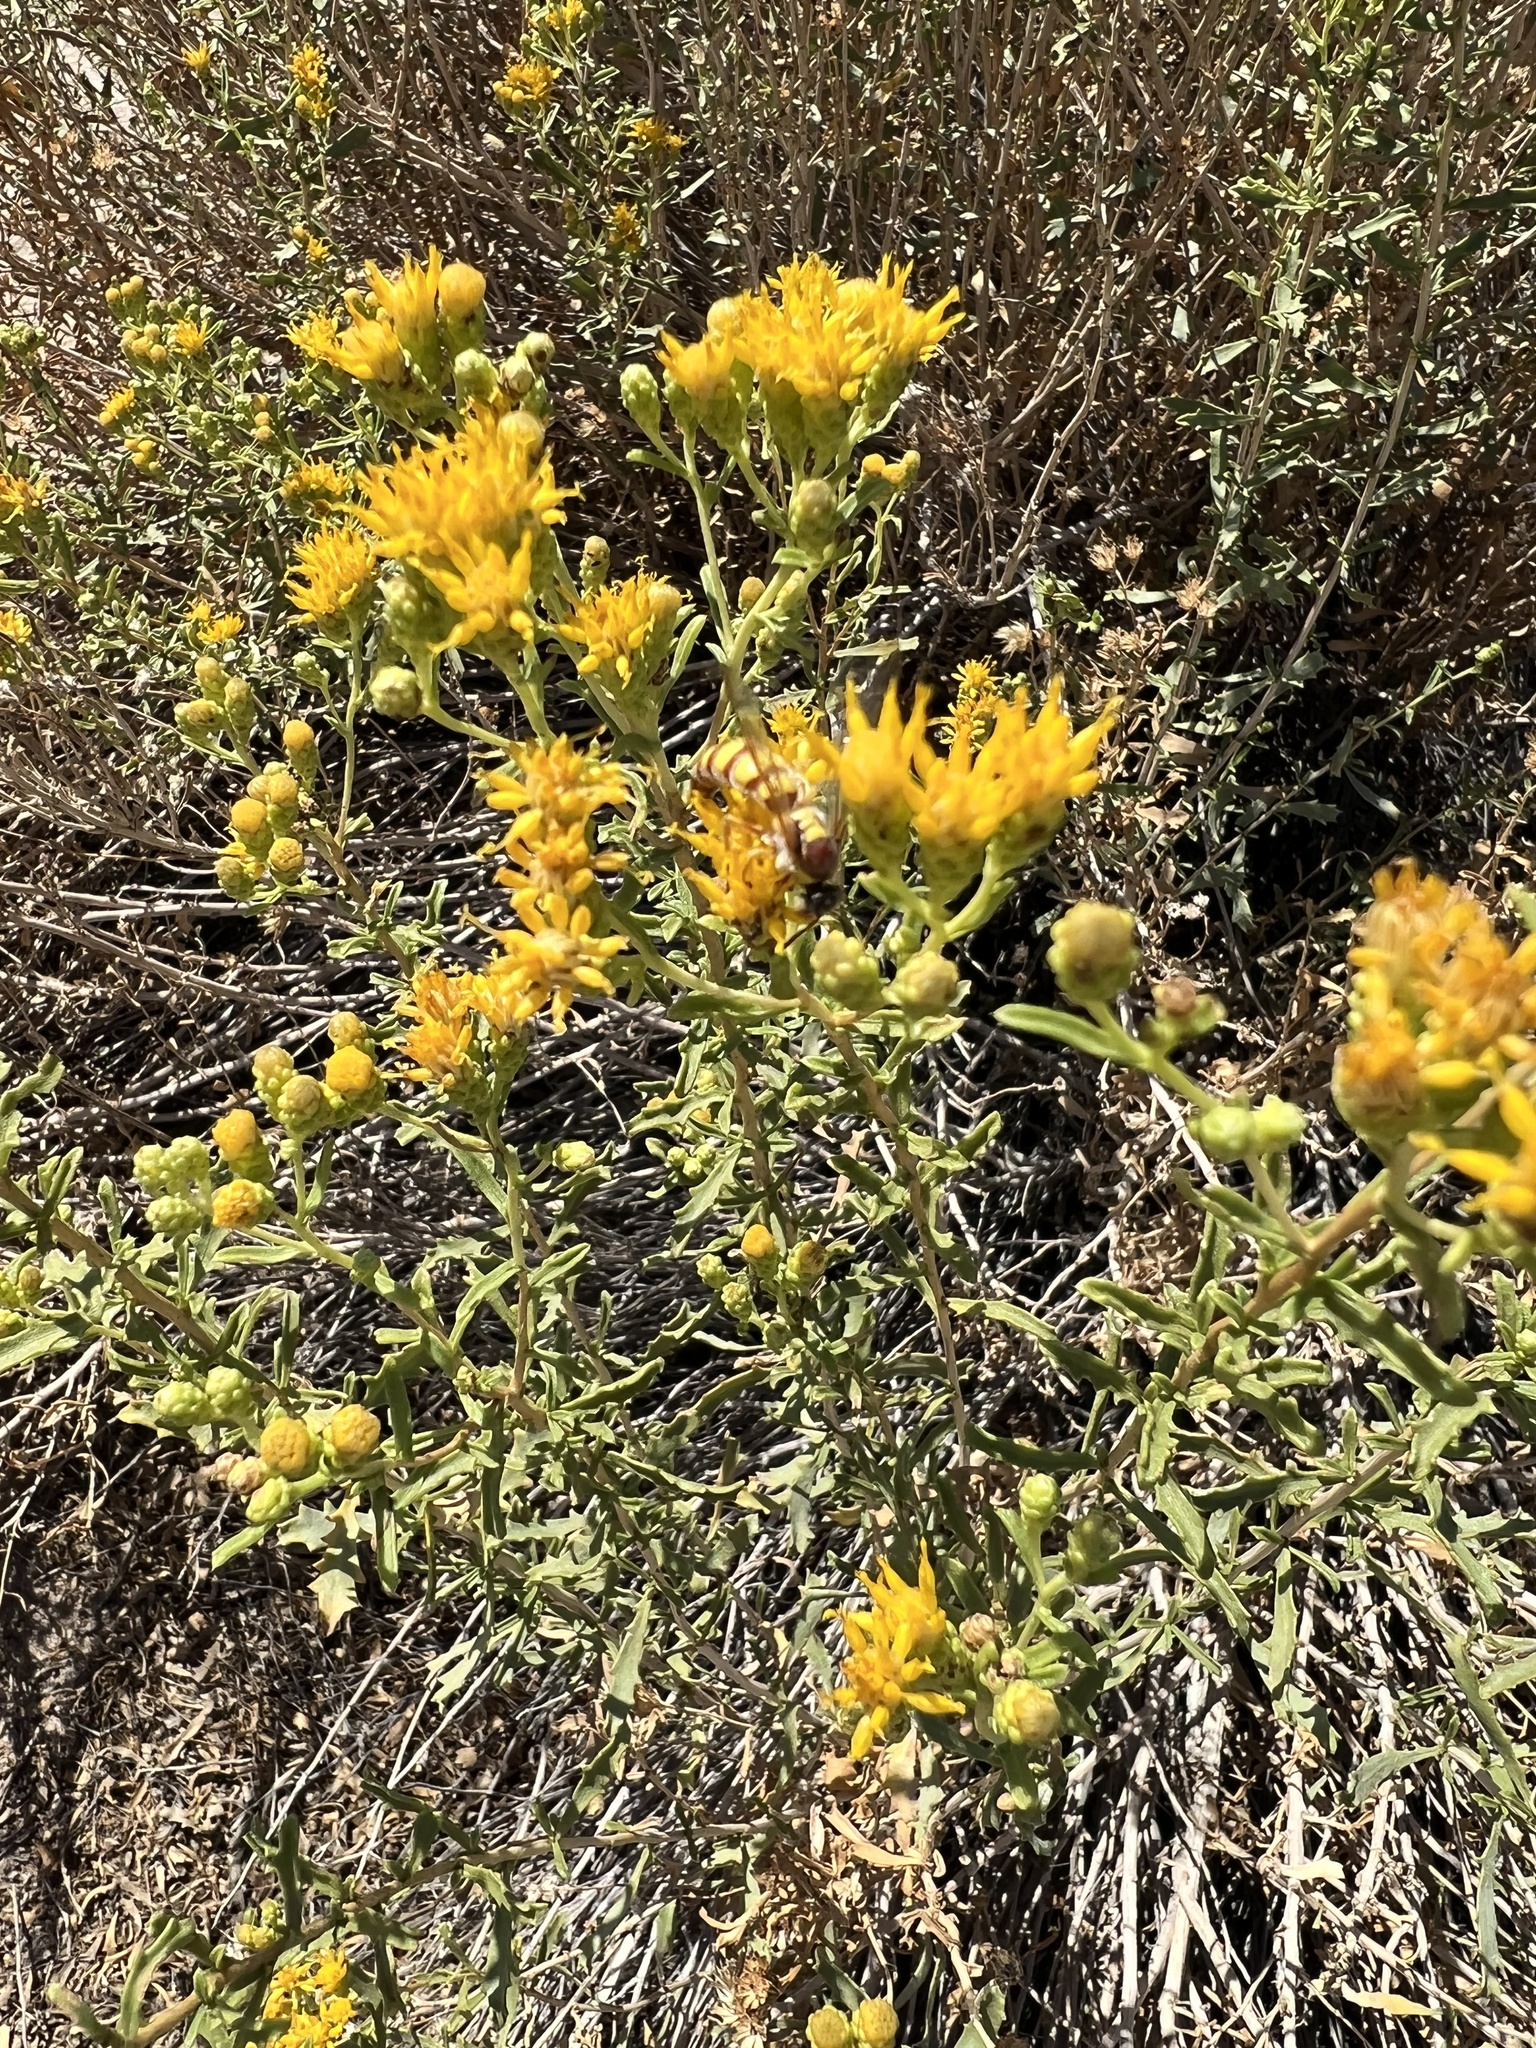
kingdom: Plantae
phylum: Tracheophyta
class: Magnoliopsida
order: Asterales
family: Asteraceae
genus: Isocoma
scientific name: Isocoma acradenia
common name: Alkali jimmyweed
